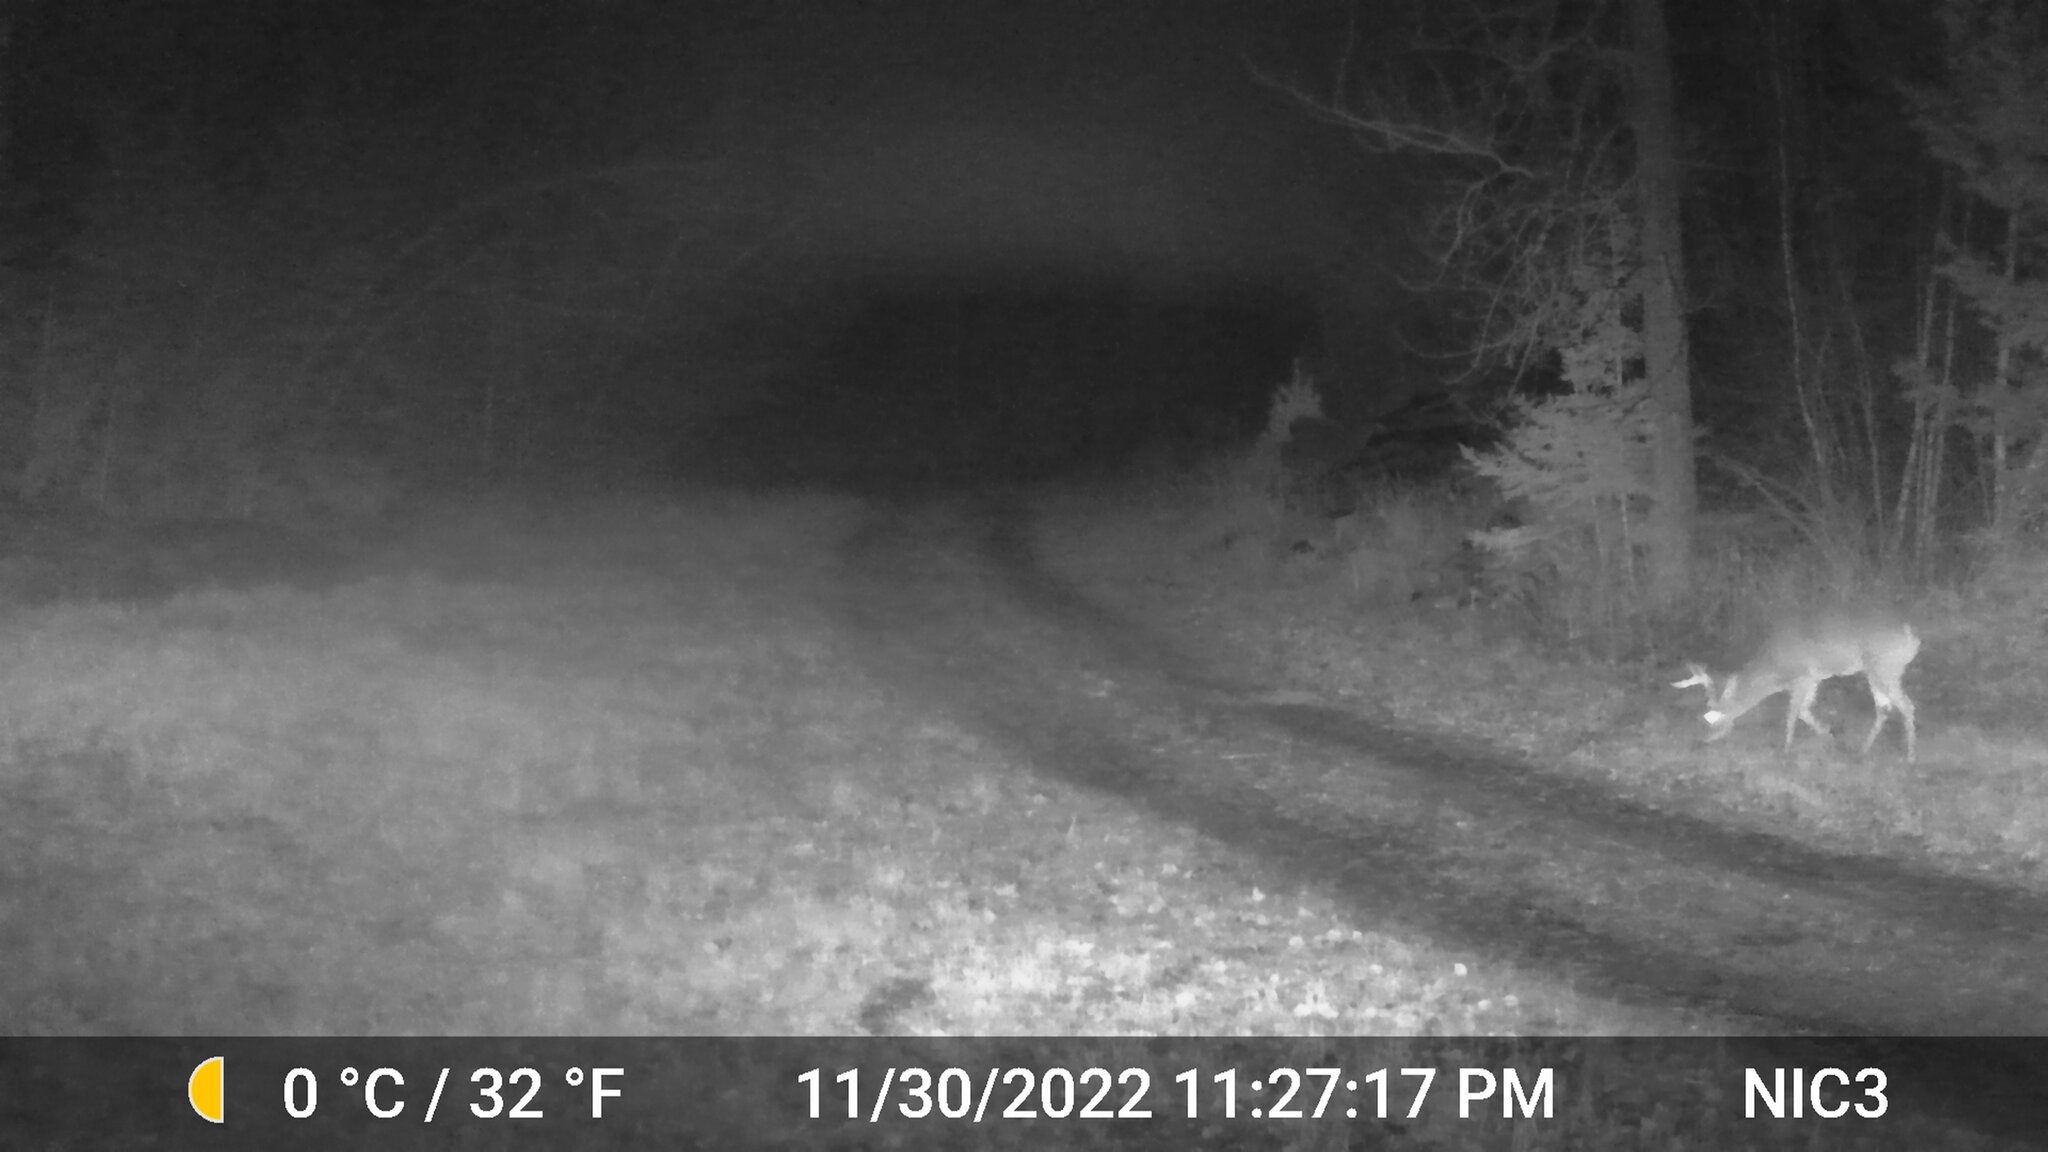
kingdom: Animalia
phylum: Chordata
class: Mammalia
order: Artiodactyla
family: Cervidae
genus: Odocoileus
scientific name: Odocoileus virginianus
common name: White-tailed deer
